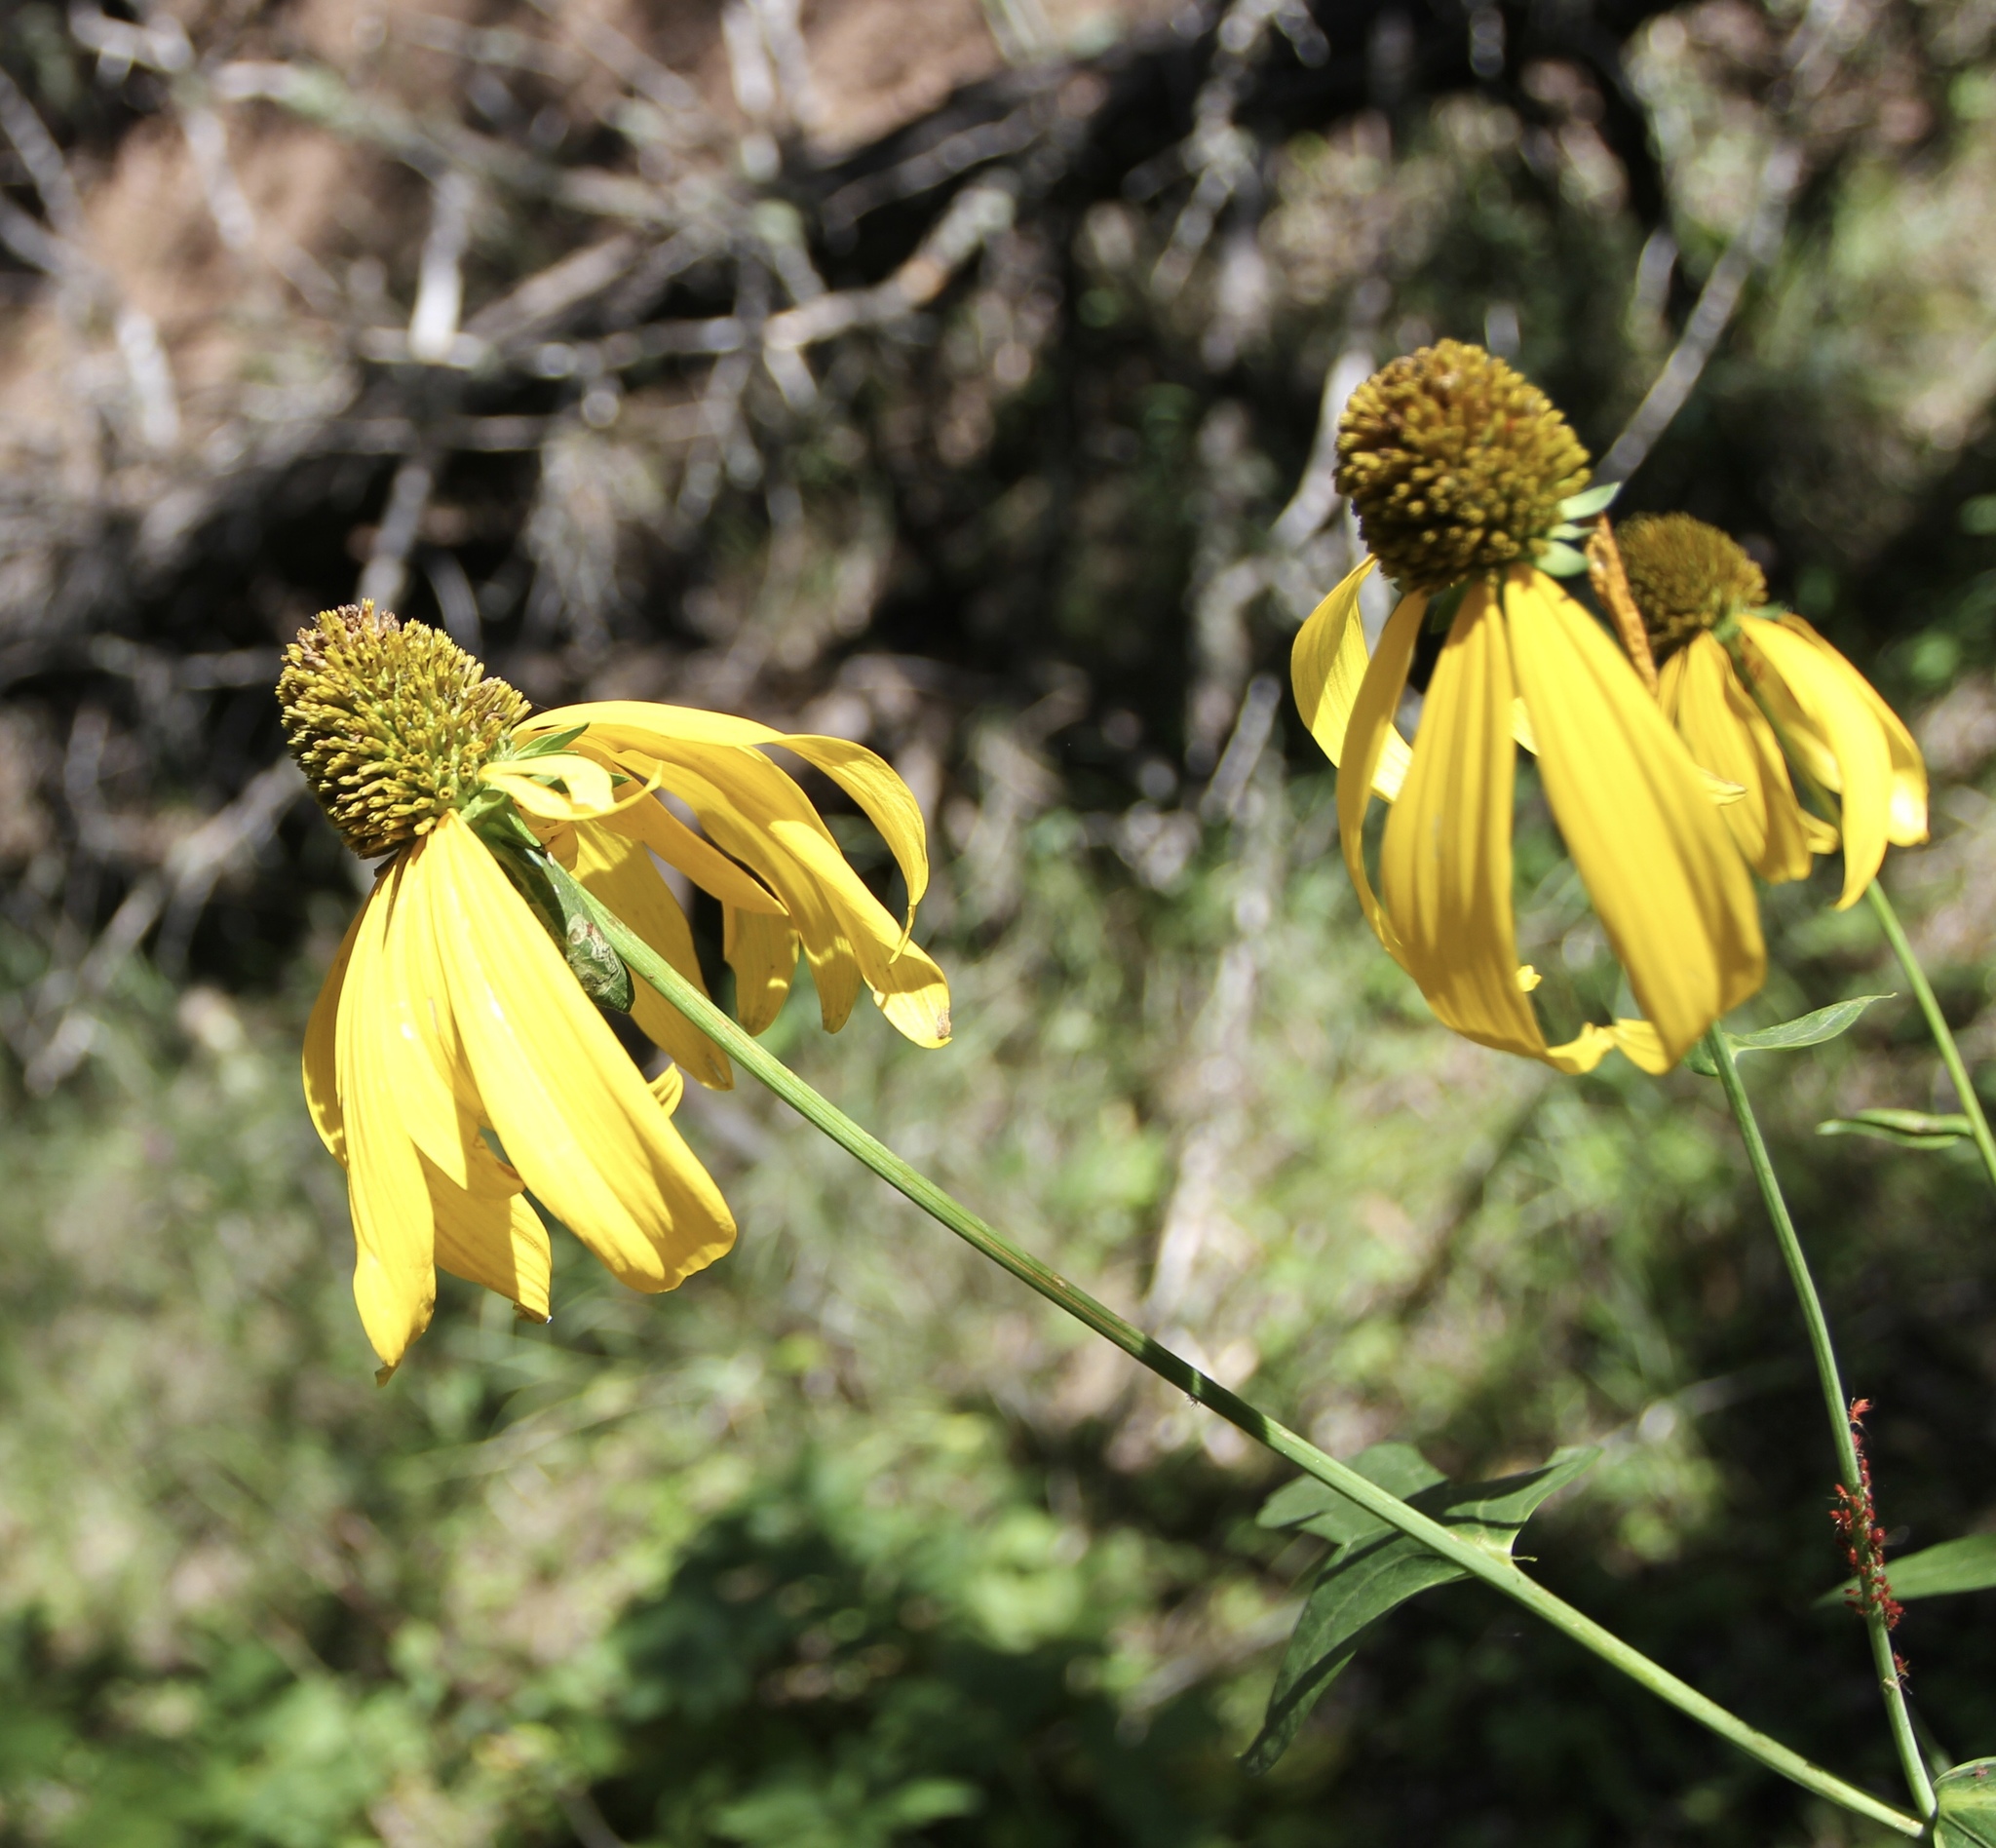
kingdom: Plantae
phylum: Tracheophyta
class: Magnoliopsida
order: Asterales
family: Asteraceae
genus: Rudbeckia
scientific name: Rudbeckia laciniata
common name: Coneflower
